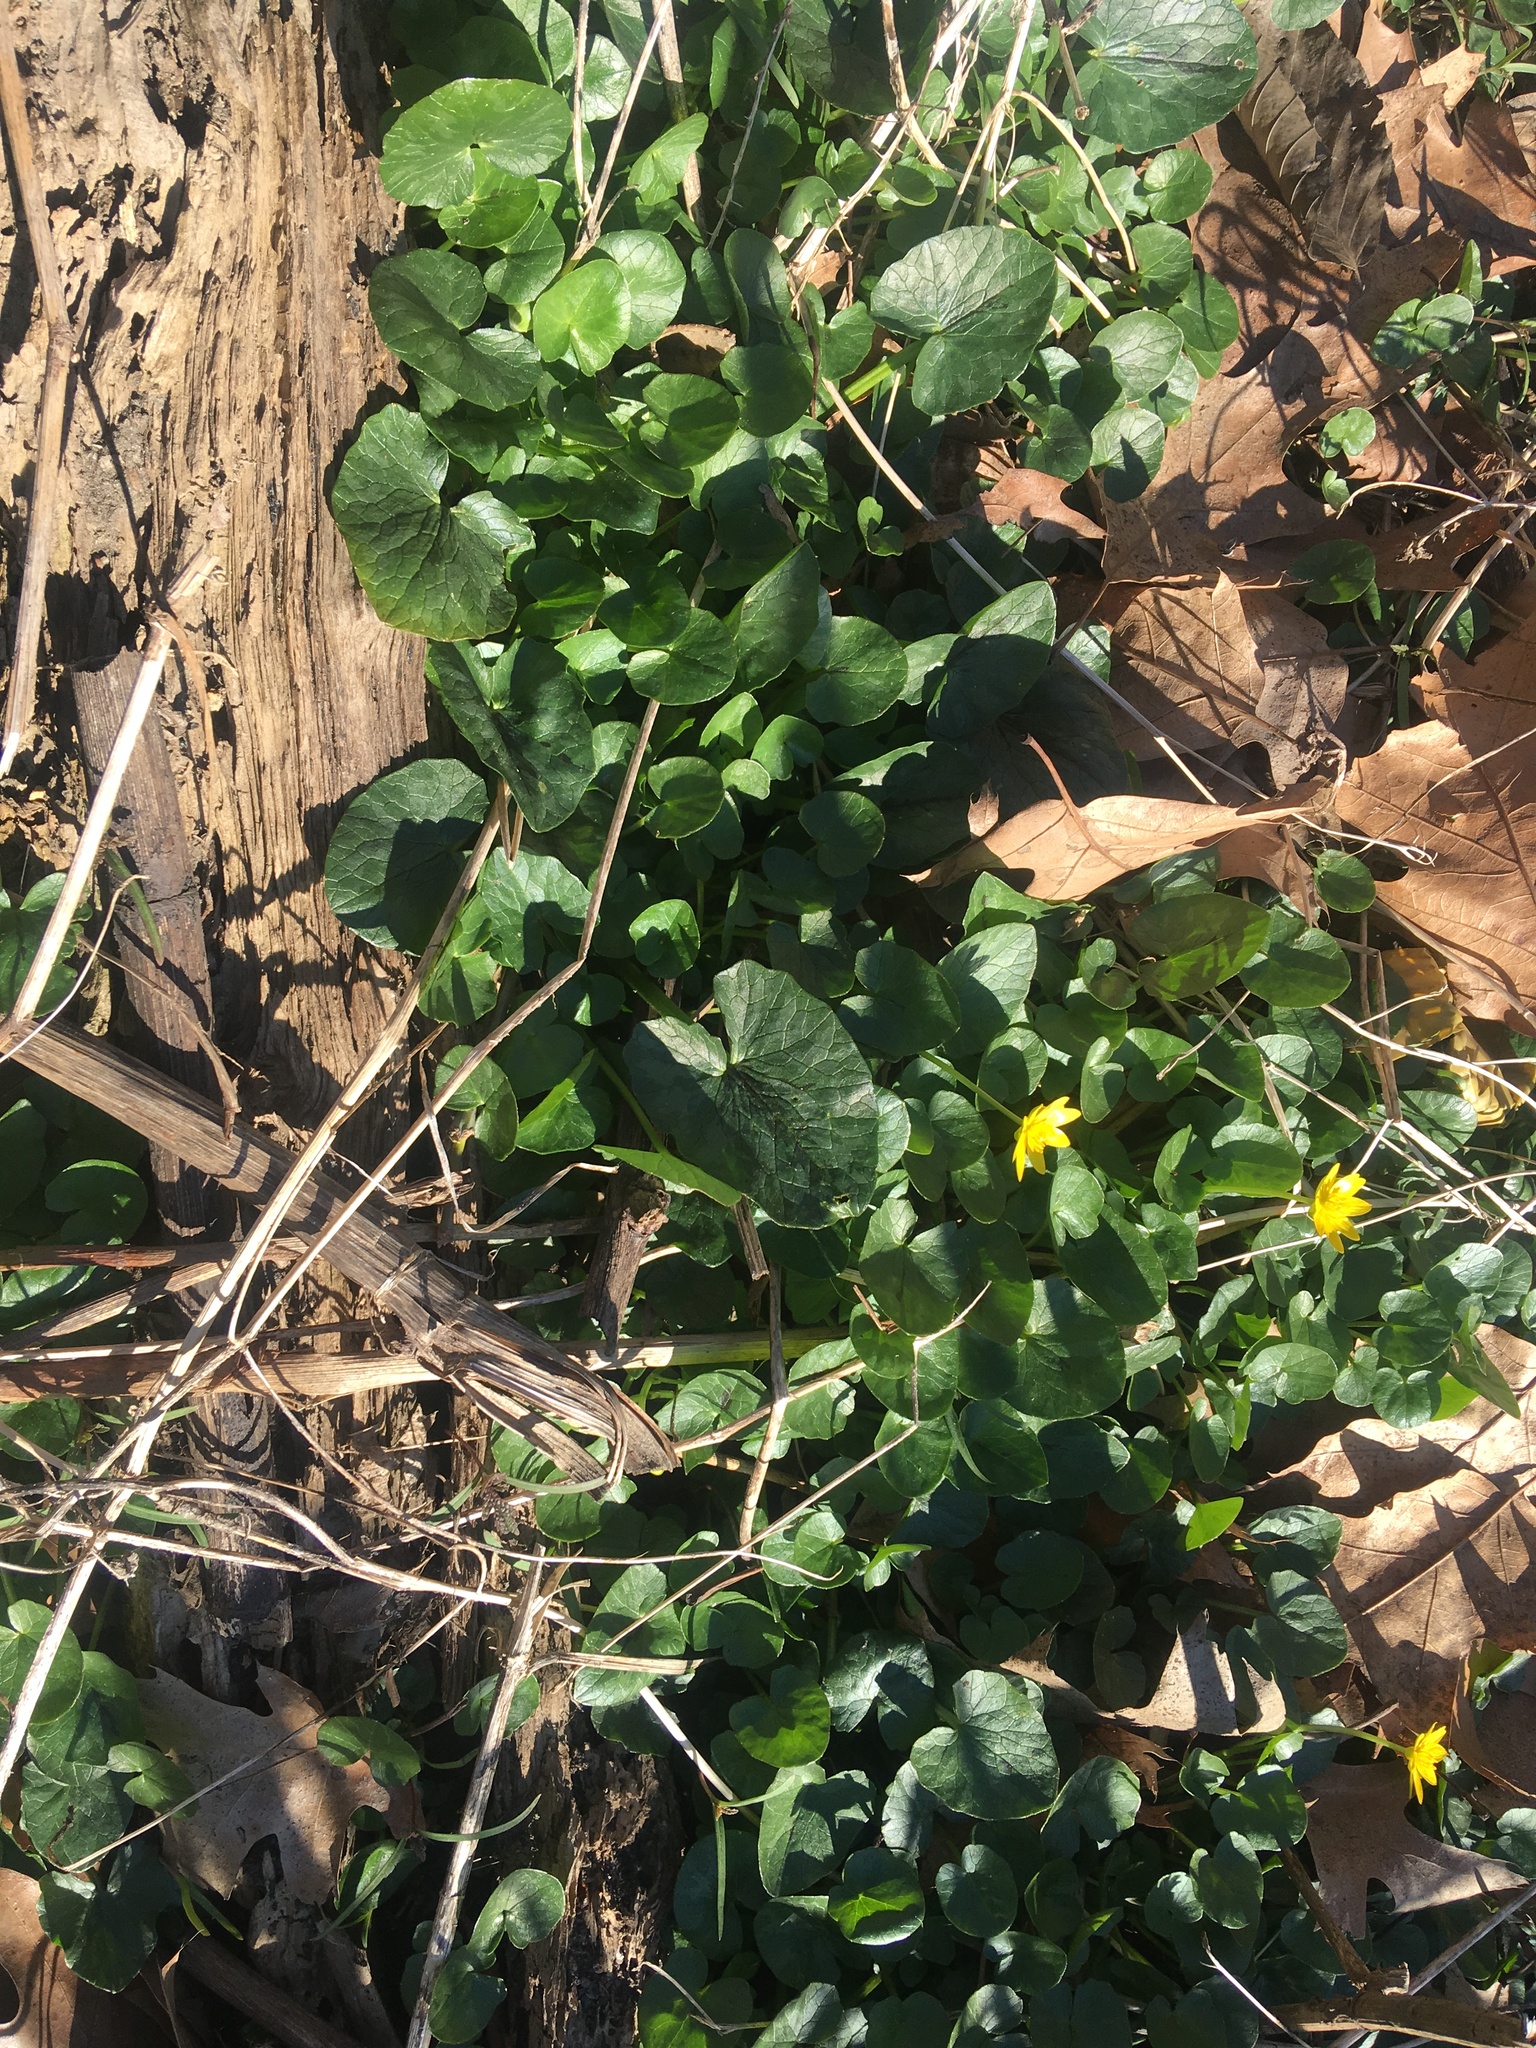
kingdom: Plantae
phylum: Tracheophyta
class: Magnoliopsida
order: Ranunculales
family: Ranunculaceae
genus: Ficaria
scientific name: Ficaria verna
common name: Lesser celandine
